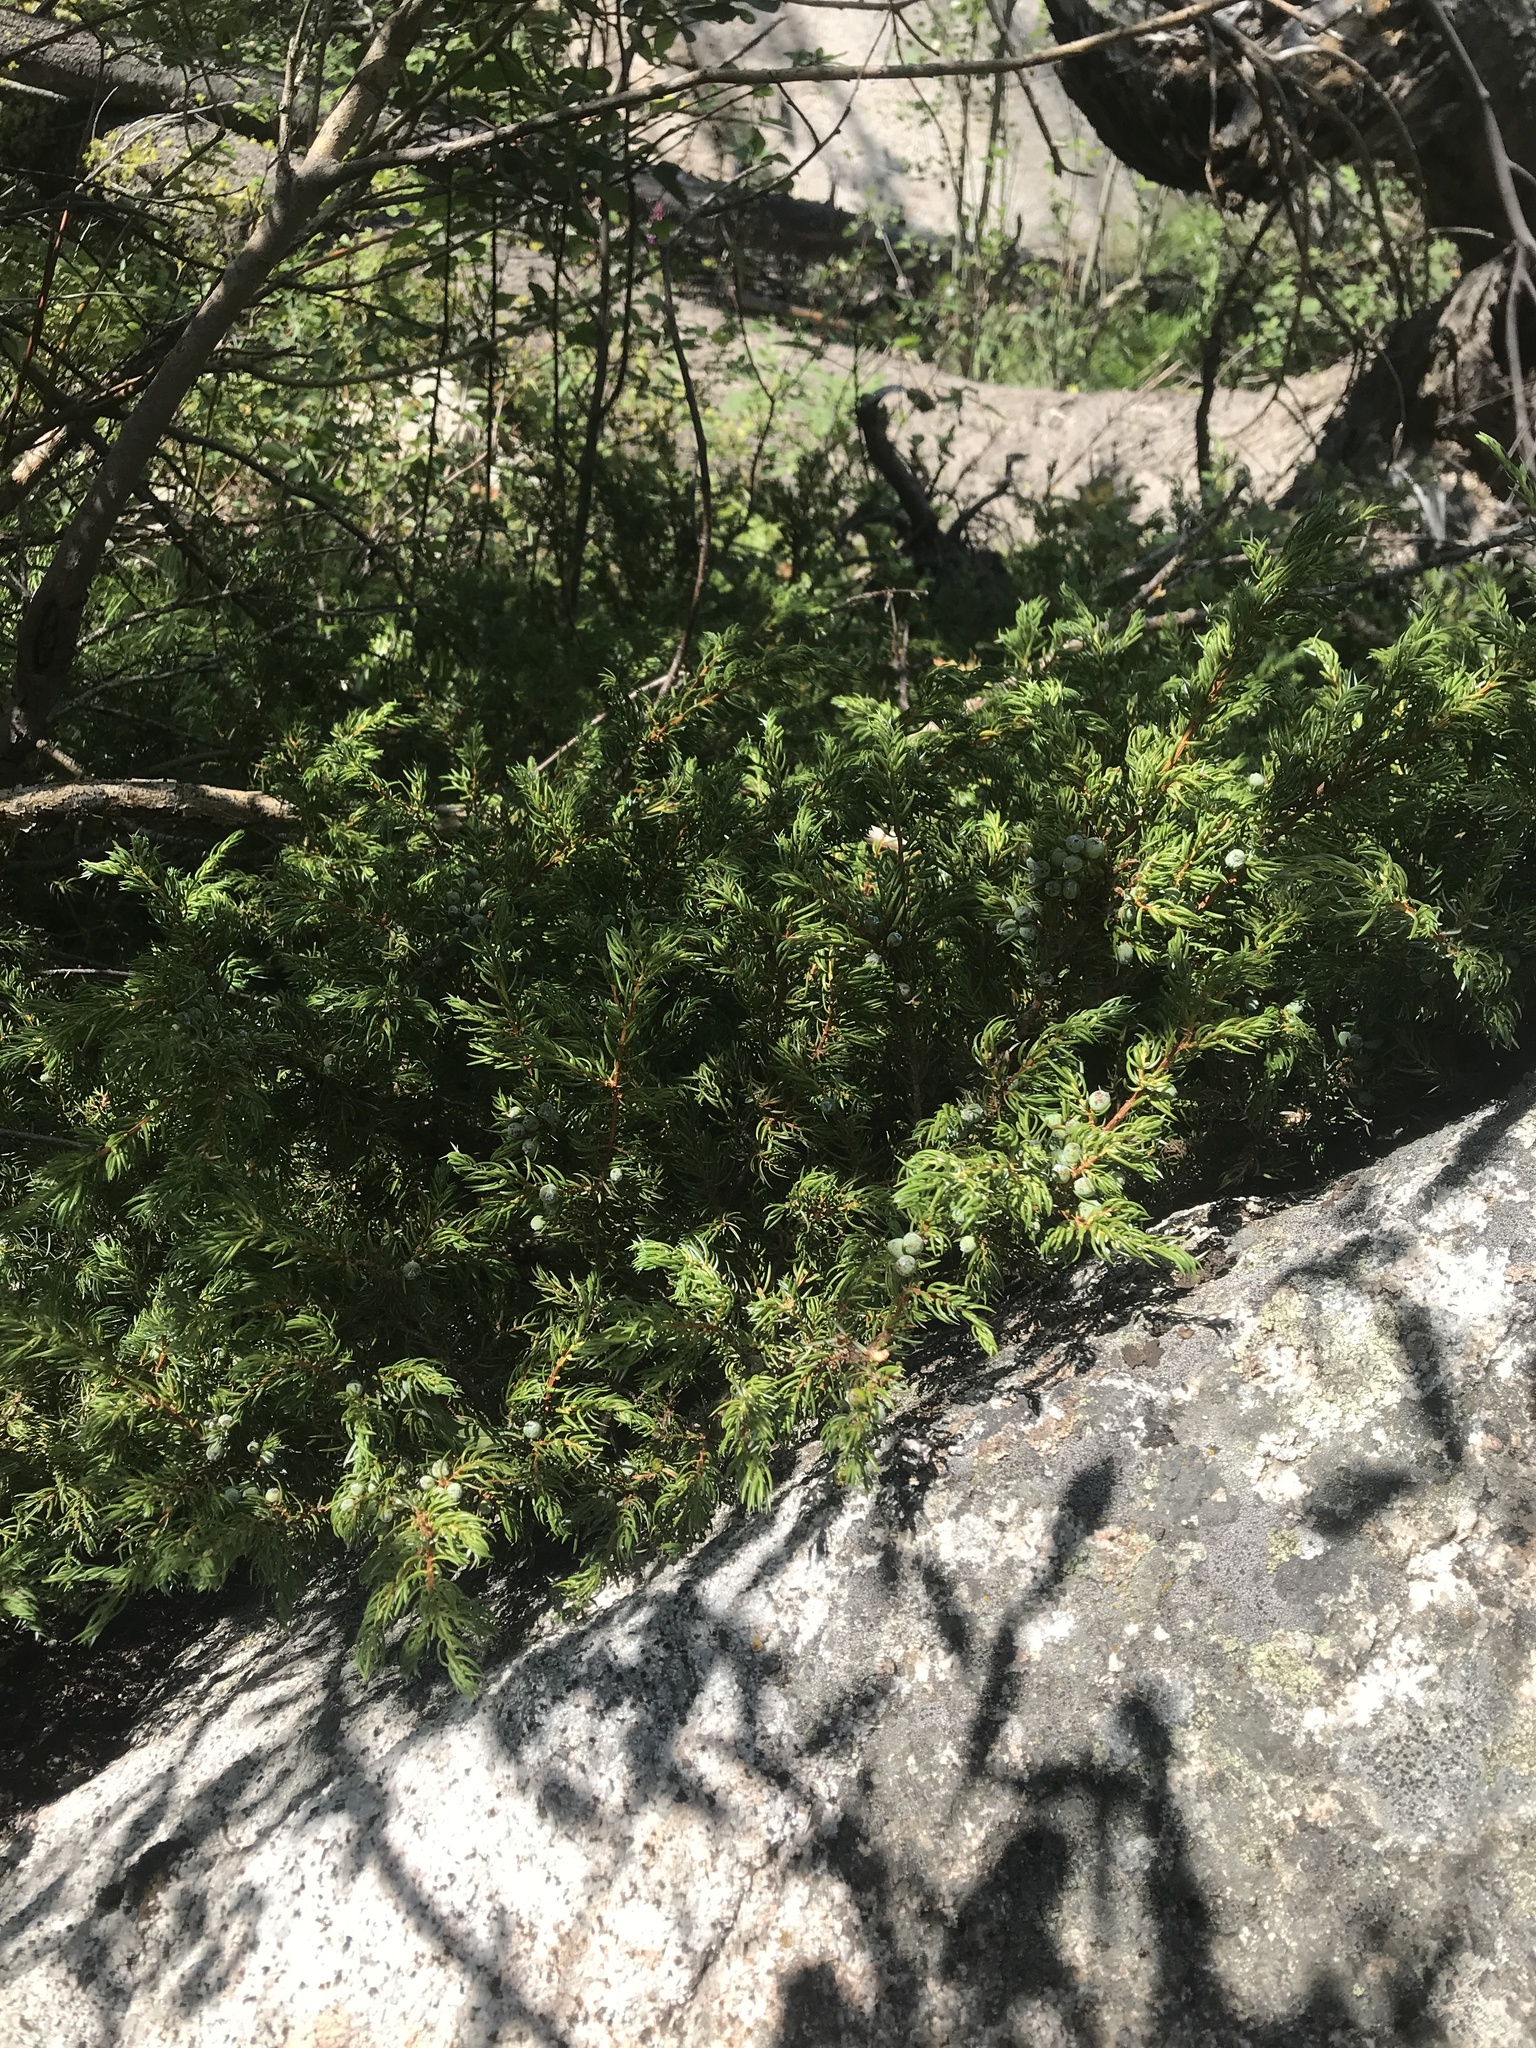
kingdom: Plantae
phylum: Tracheophyta
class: Pinopsida
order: Pinales
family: Cupressaceae
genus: Juniperus
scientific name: Juniperus communis
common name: Common juniper
